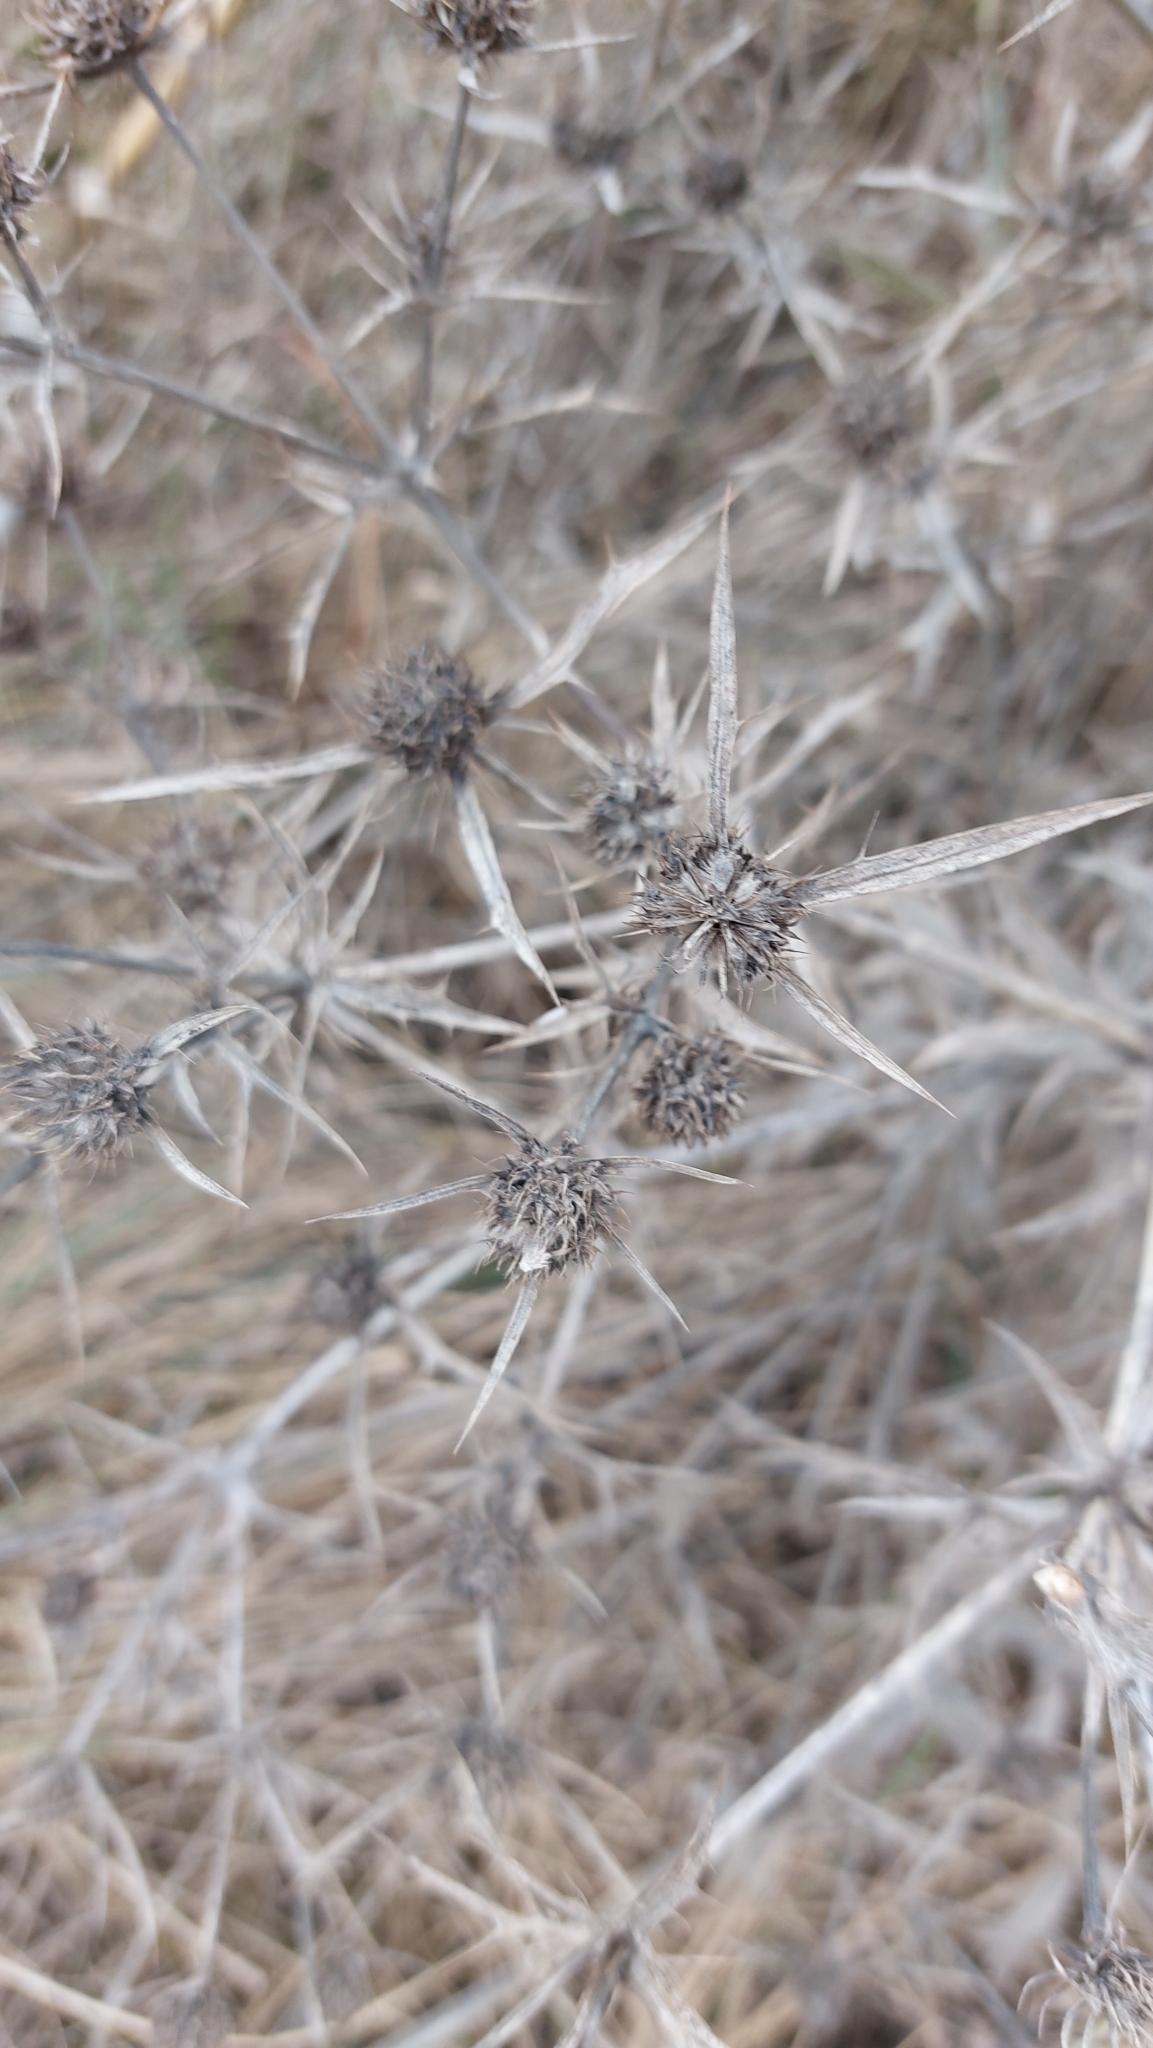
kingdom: Plantae
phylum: Tracheophyta
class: Magnoliopsida
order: Apiales
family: Apiaceae
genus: Eryngium
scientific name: Eryngium campestre
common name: Field eryngo
